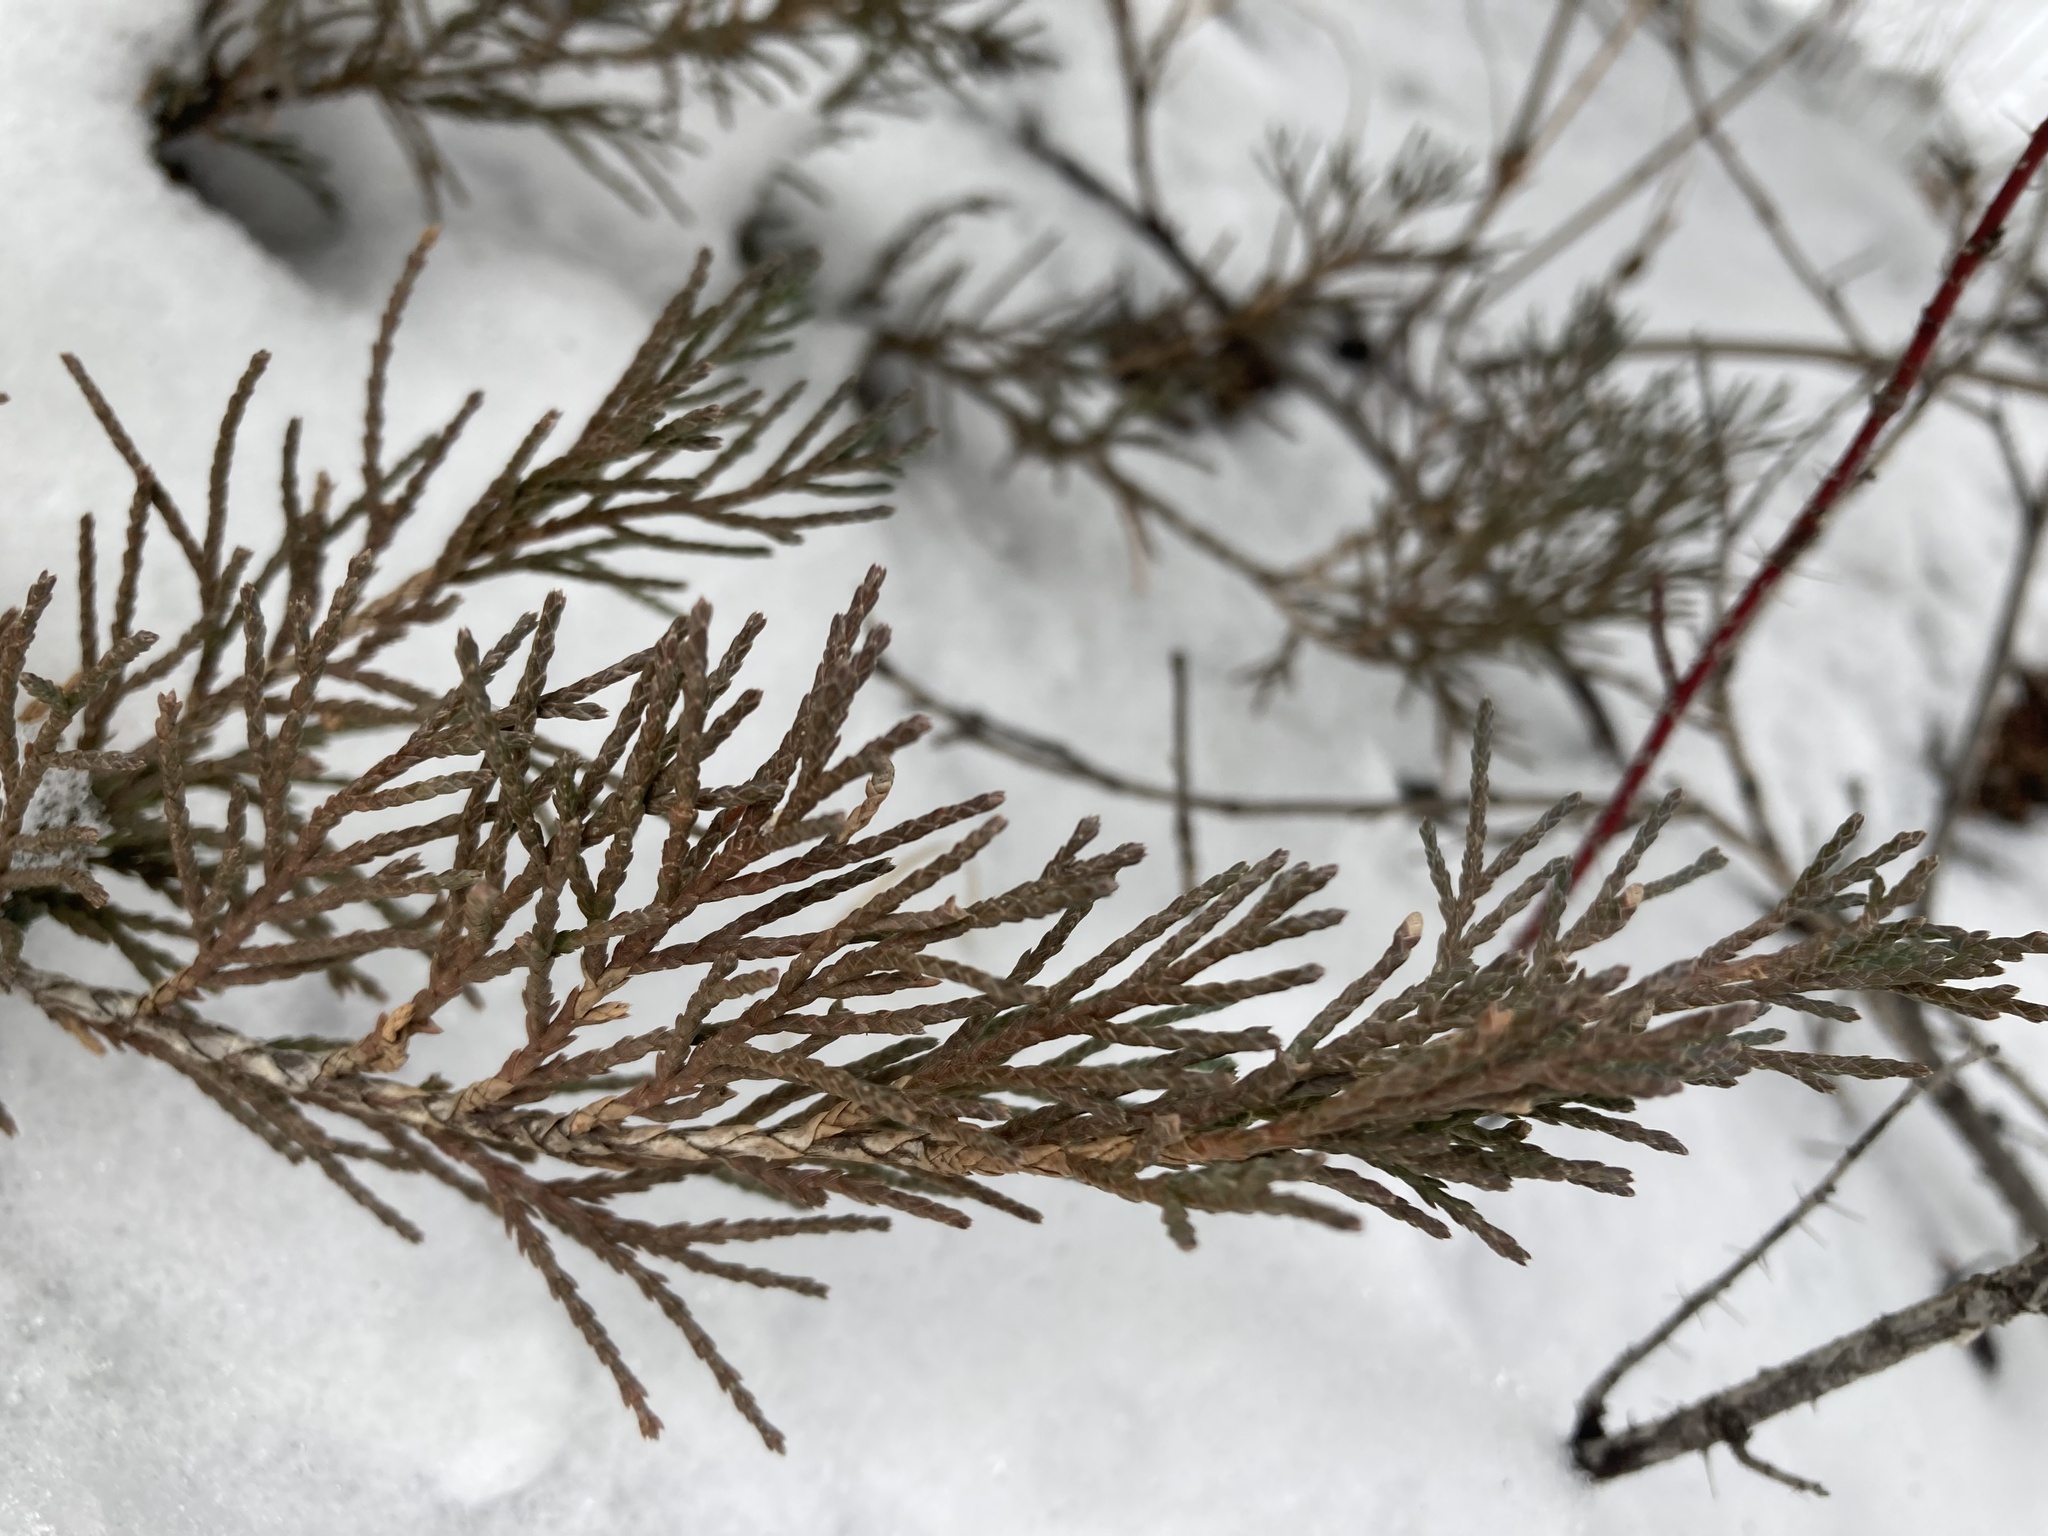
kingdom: Plantae
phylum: Tracheophyta
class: Pinopsida
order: Pinales
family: Cupressaceae
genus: Juniperus
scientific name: Juniperus horizontalis
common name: Creeping juniper
